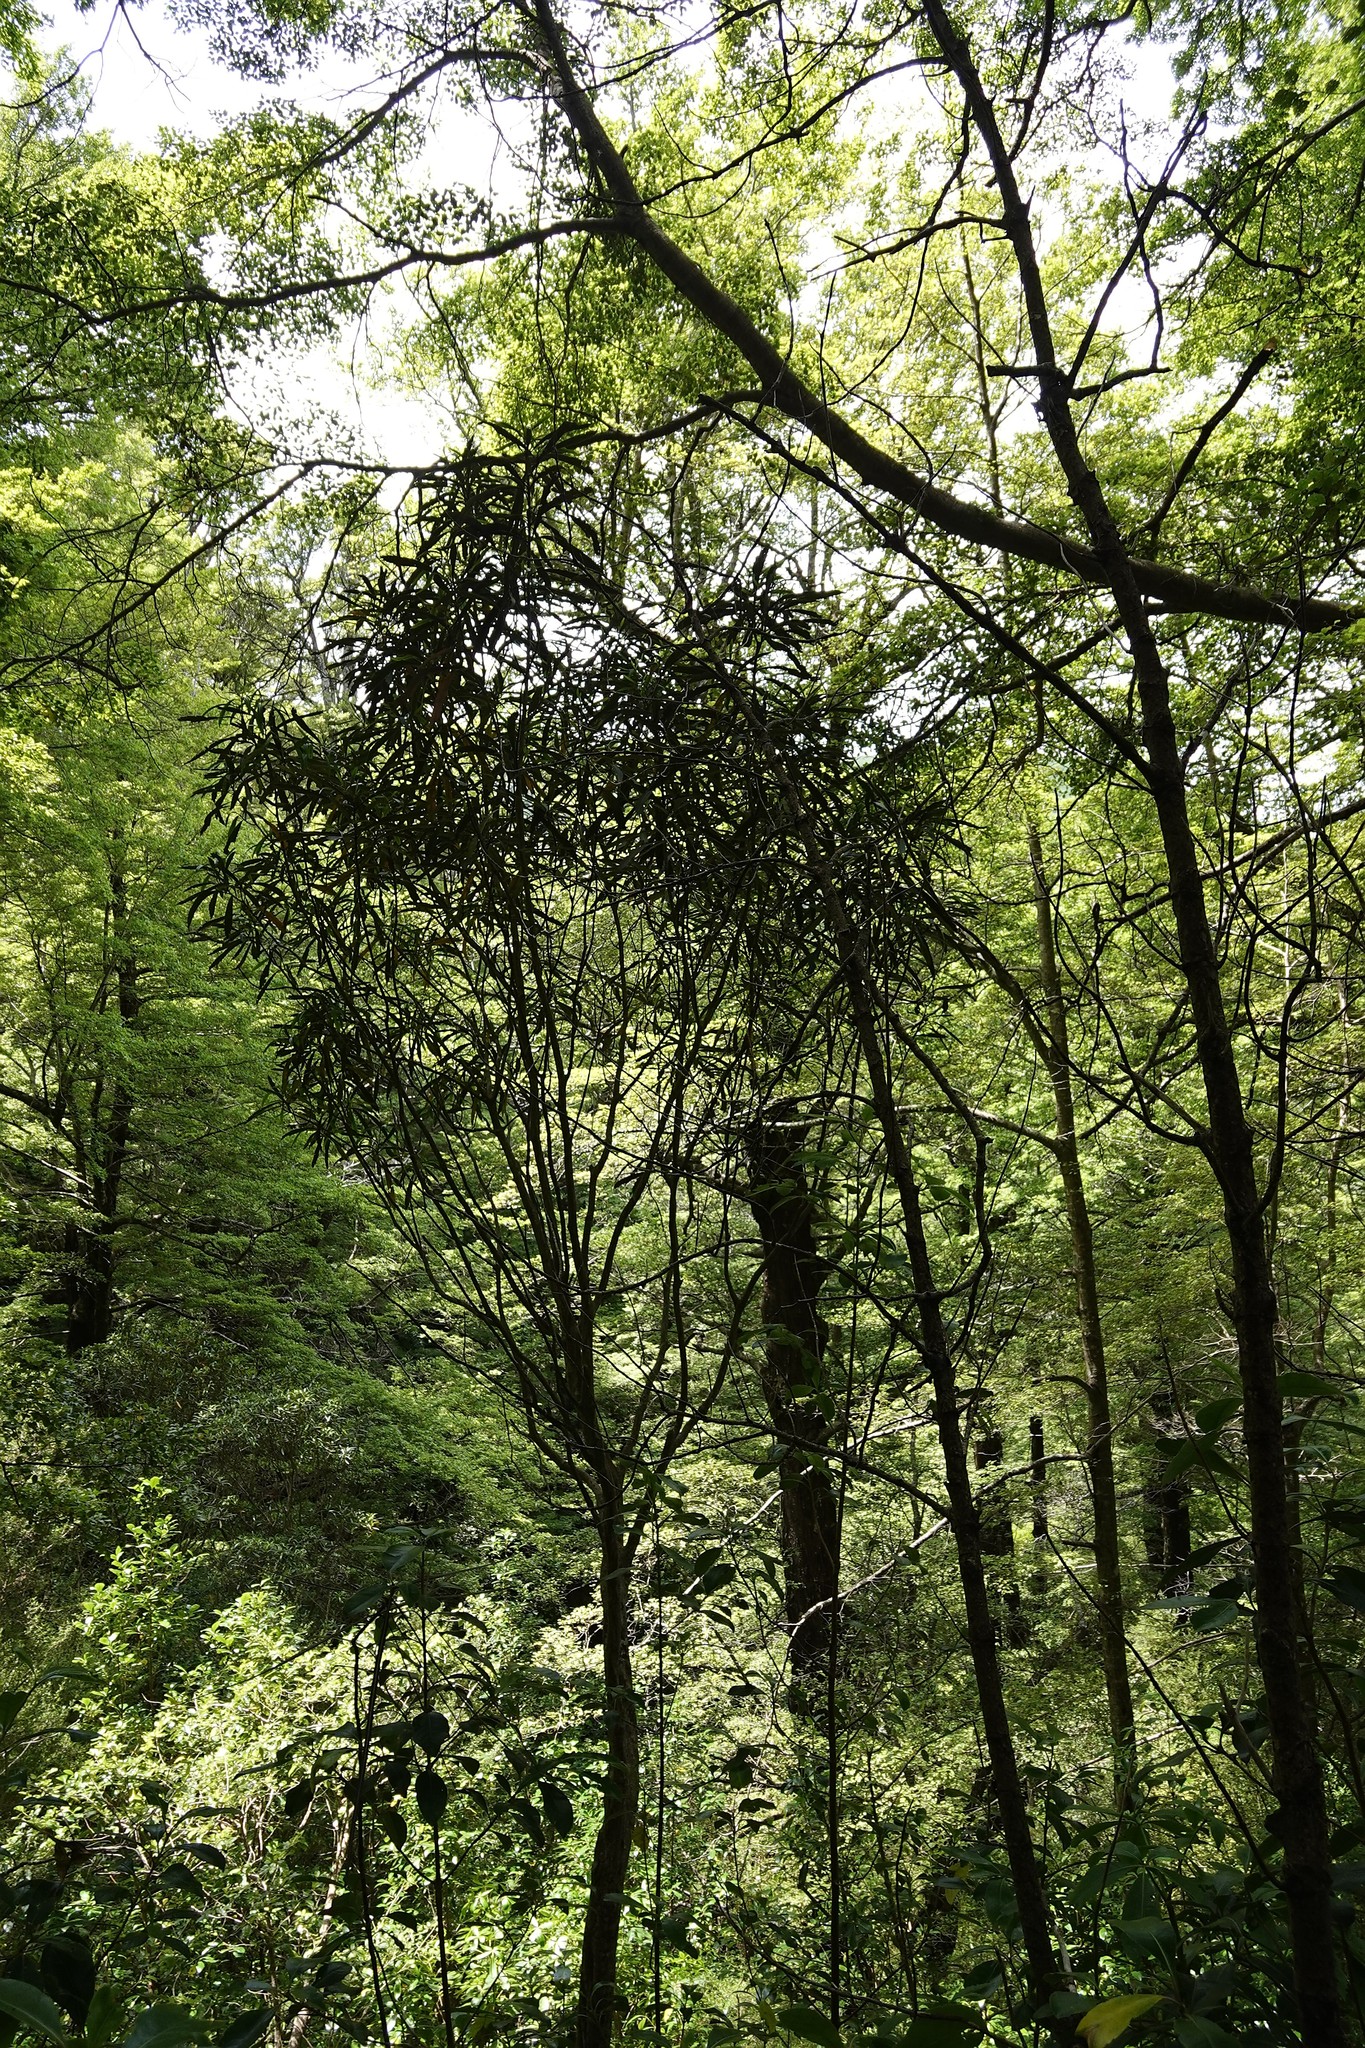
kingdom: Plantae
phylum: Tracheophyta
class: Magnoliopsida
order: Apiales
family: Araliaceae
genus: Pseudopanax
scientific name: Pseudopanax crassifolius
